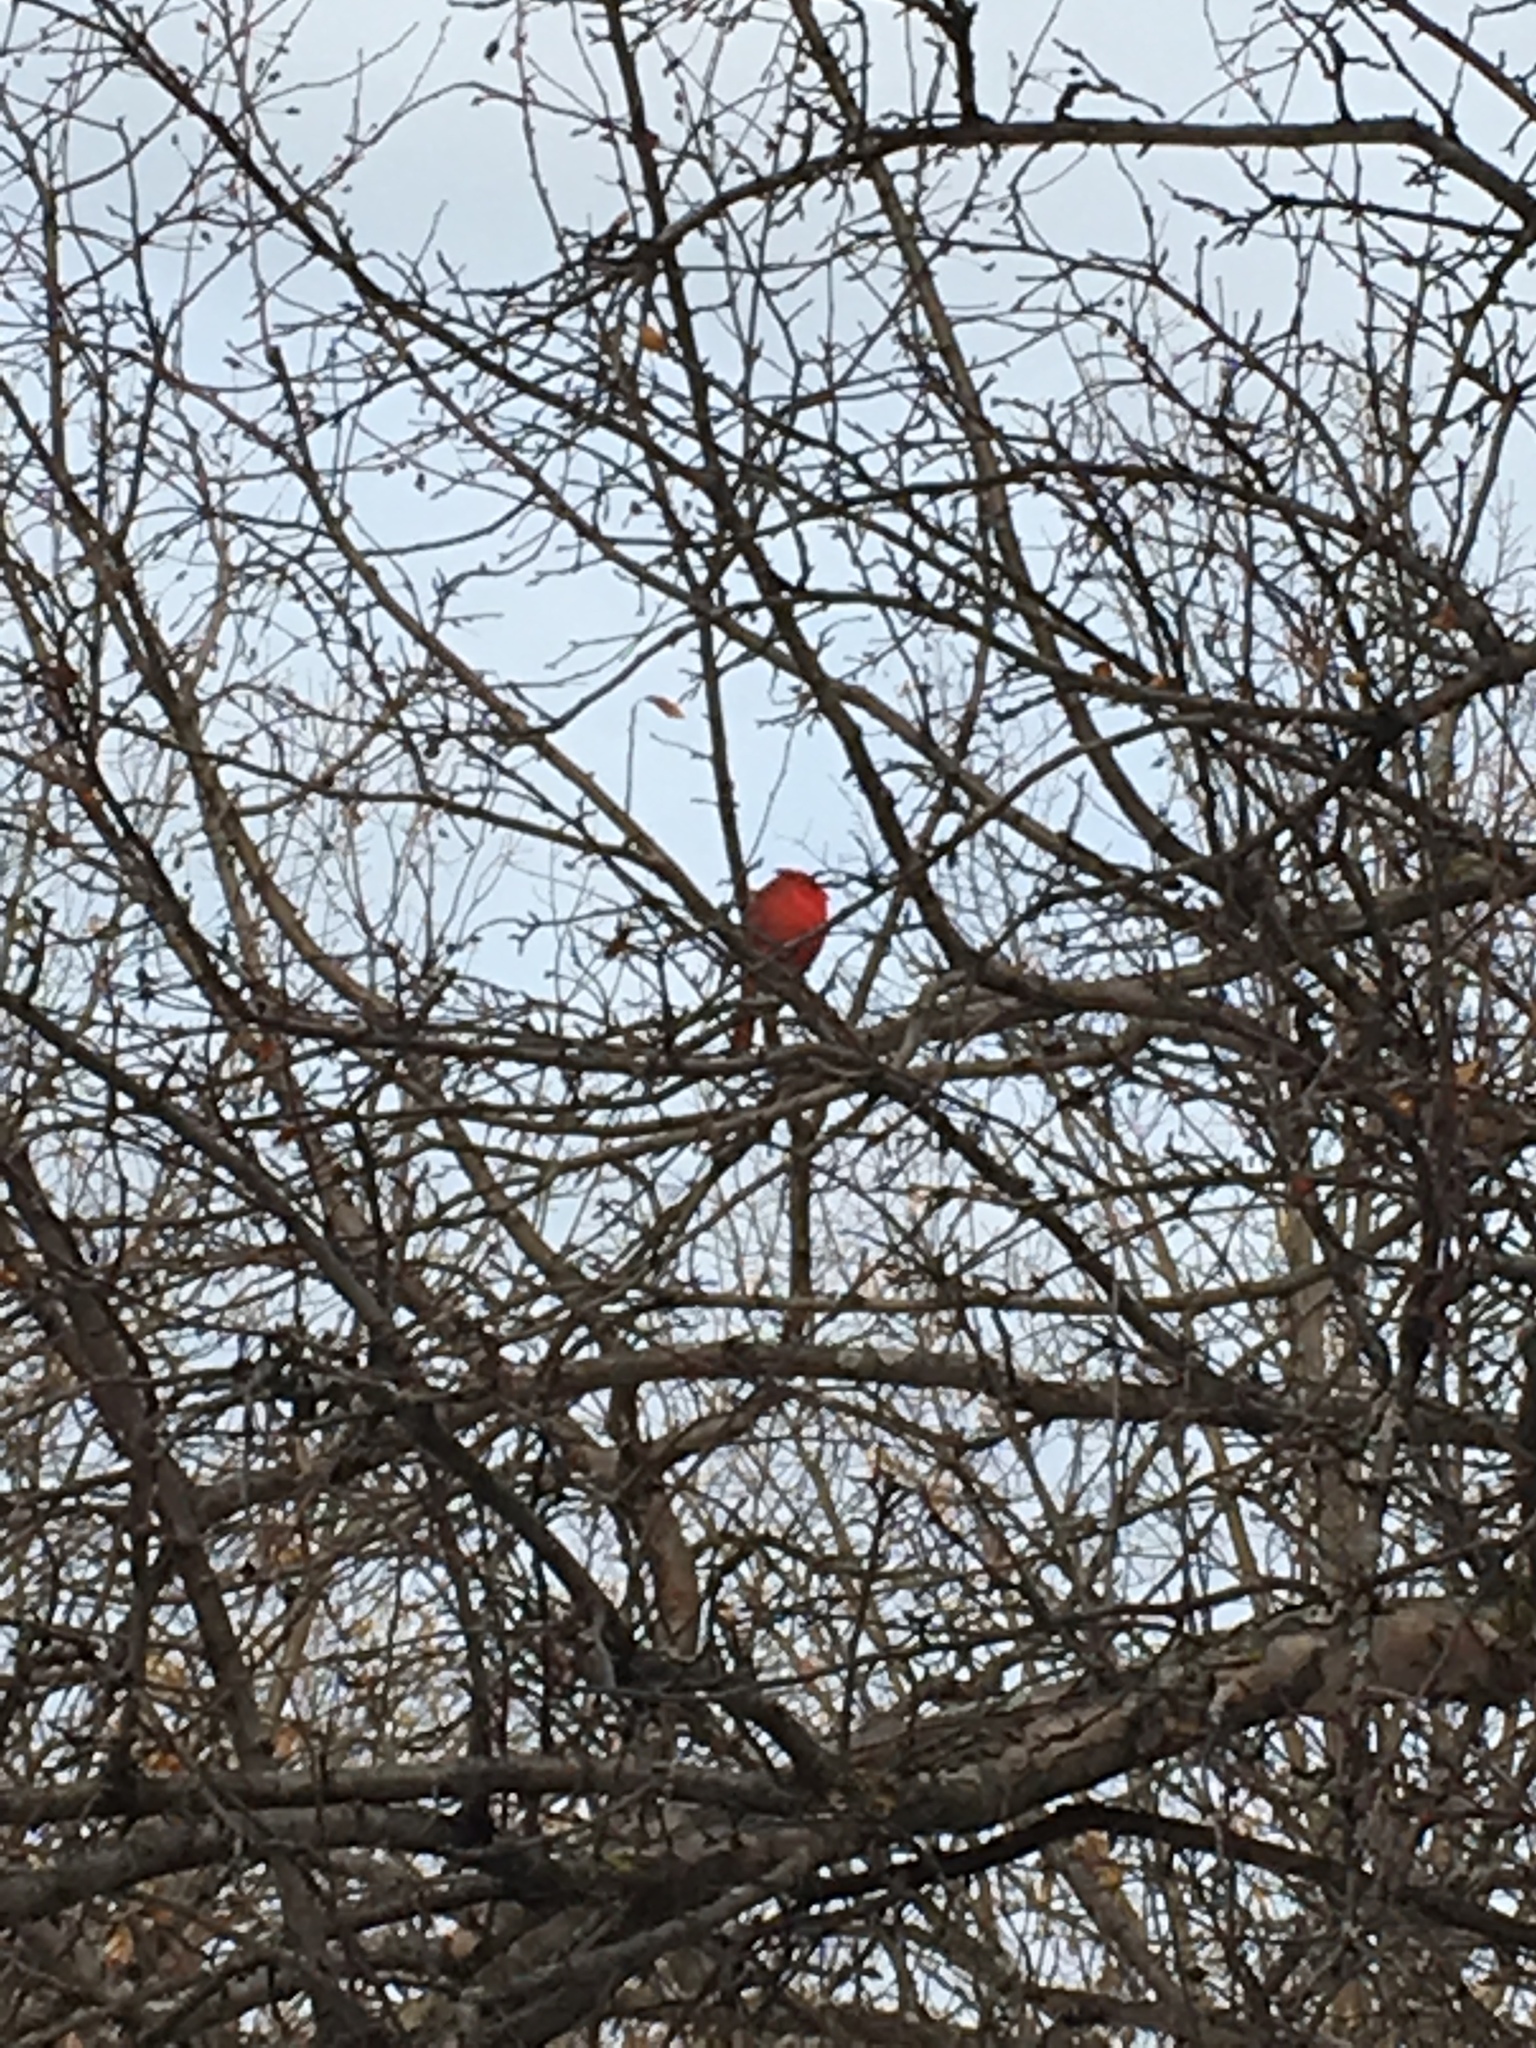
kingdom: Animalia
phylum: Chordata
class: Aves
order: Passeriformes
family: Cardinalidae
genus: Cardinalis
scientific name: Cardinalis cardinalis
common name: Northern cardinal
